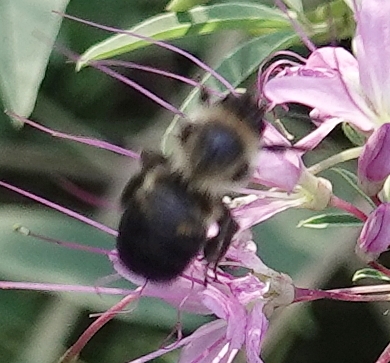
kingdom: Animalia
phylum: Arthropoda
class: Insecta
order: Hymenoptera
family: Apidae
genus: Bombus
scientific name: Bombus griseocollis
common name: Brown-belted bumble bee
